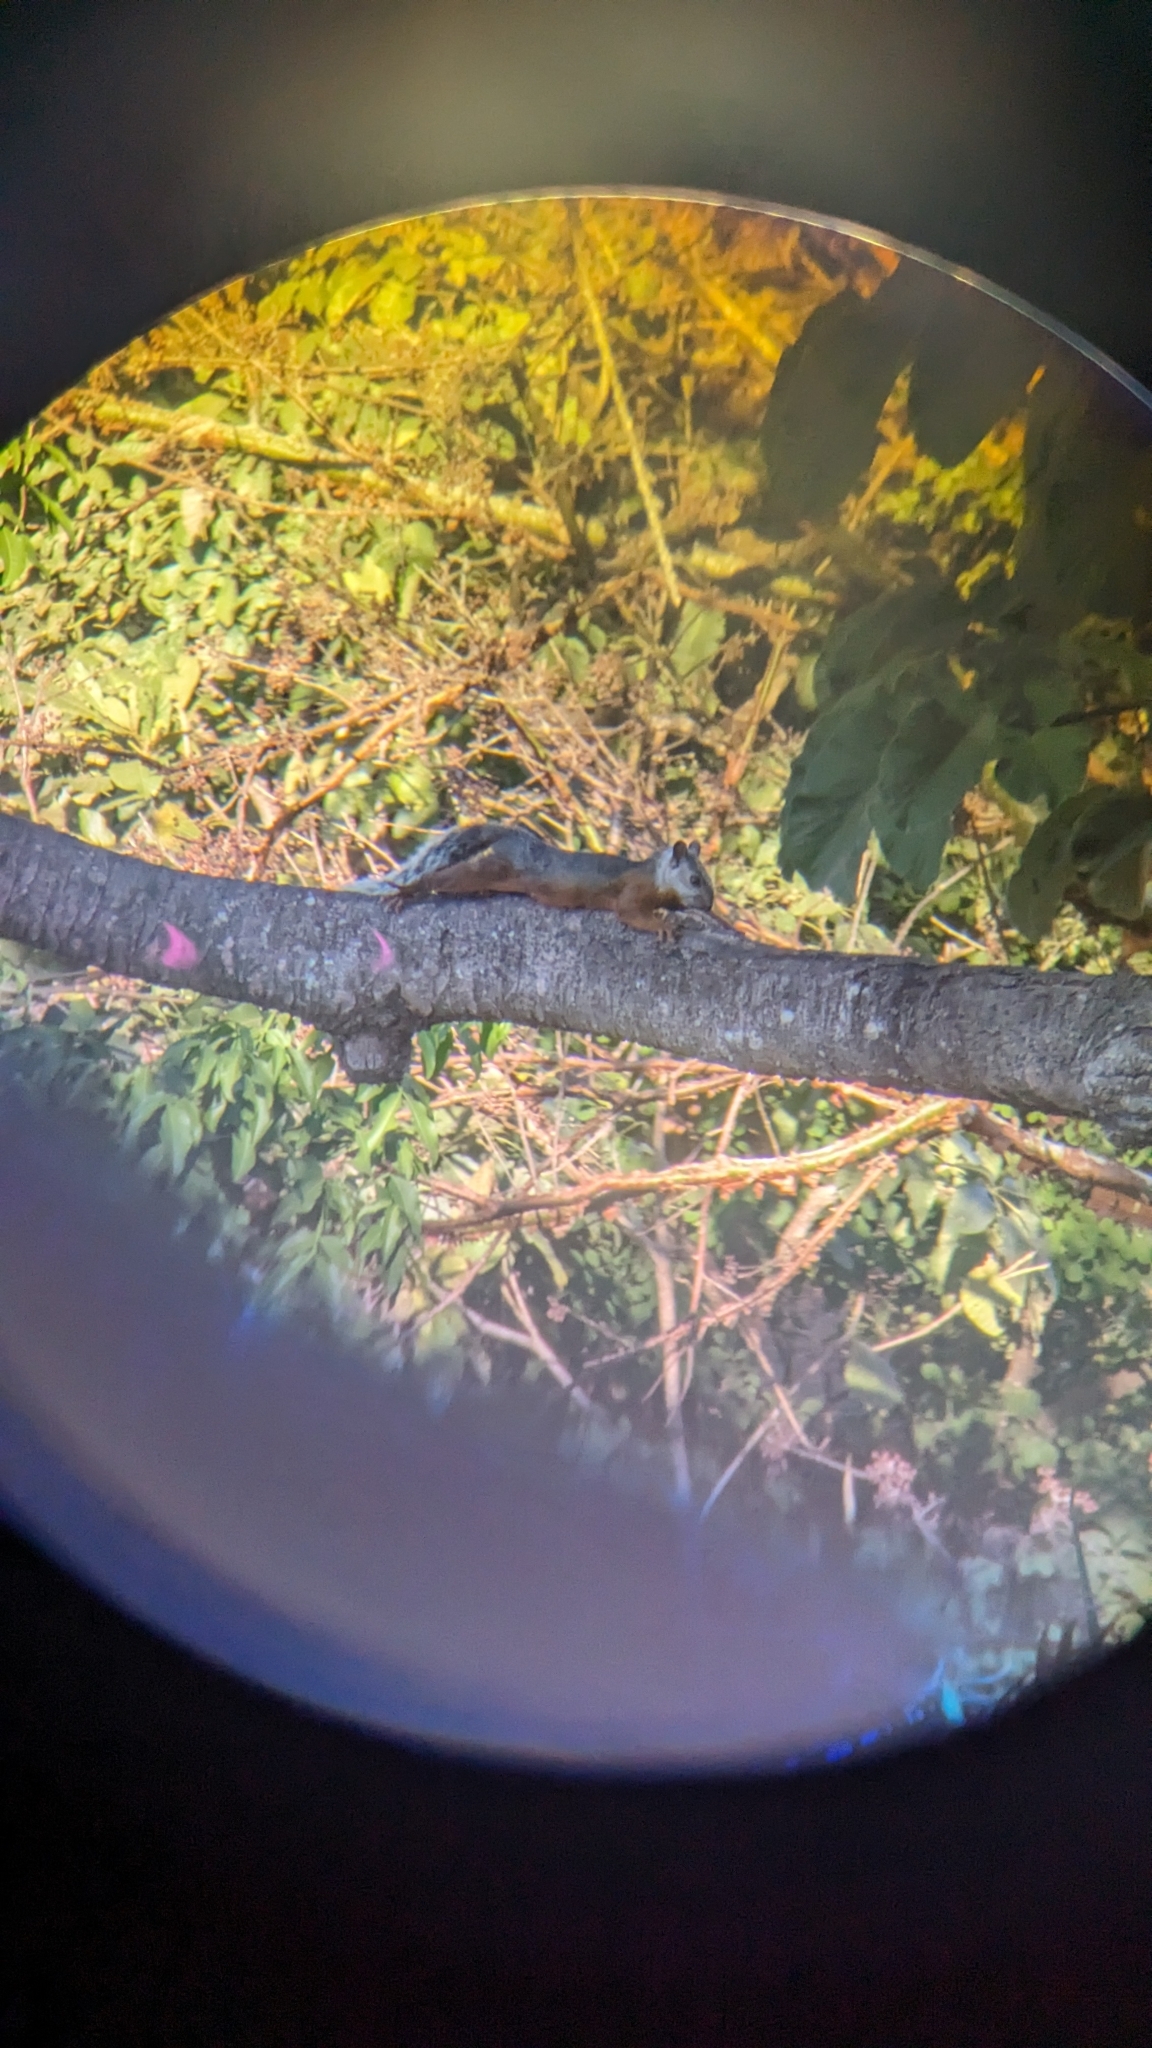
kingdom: Animalia
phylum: Chordata
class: Mammalia
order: Rodentia
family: Sciuridae
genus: Sciurus
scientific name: Sciurus variegatoides
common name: Variegated squirrel
